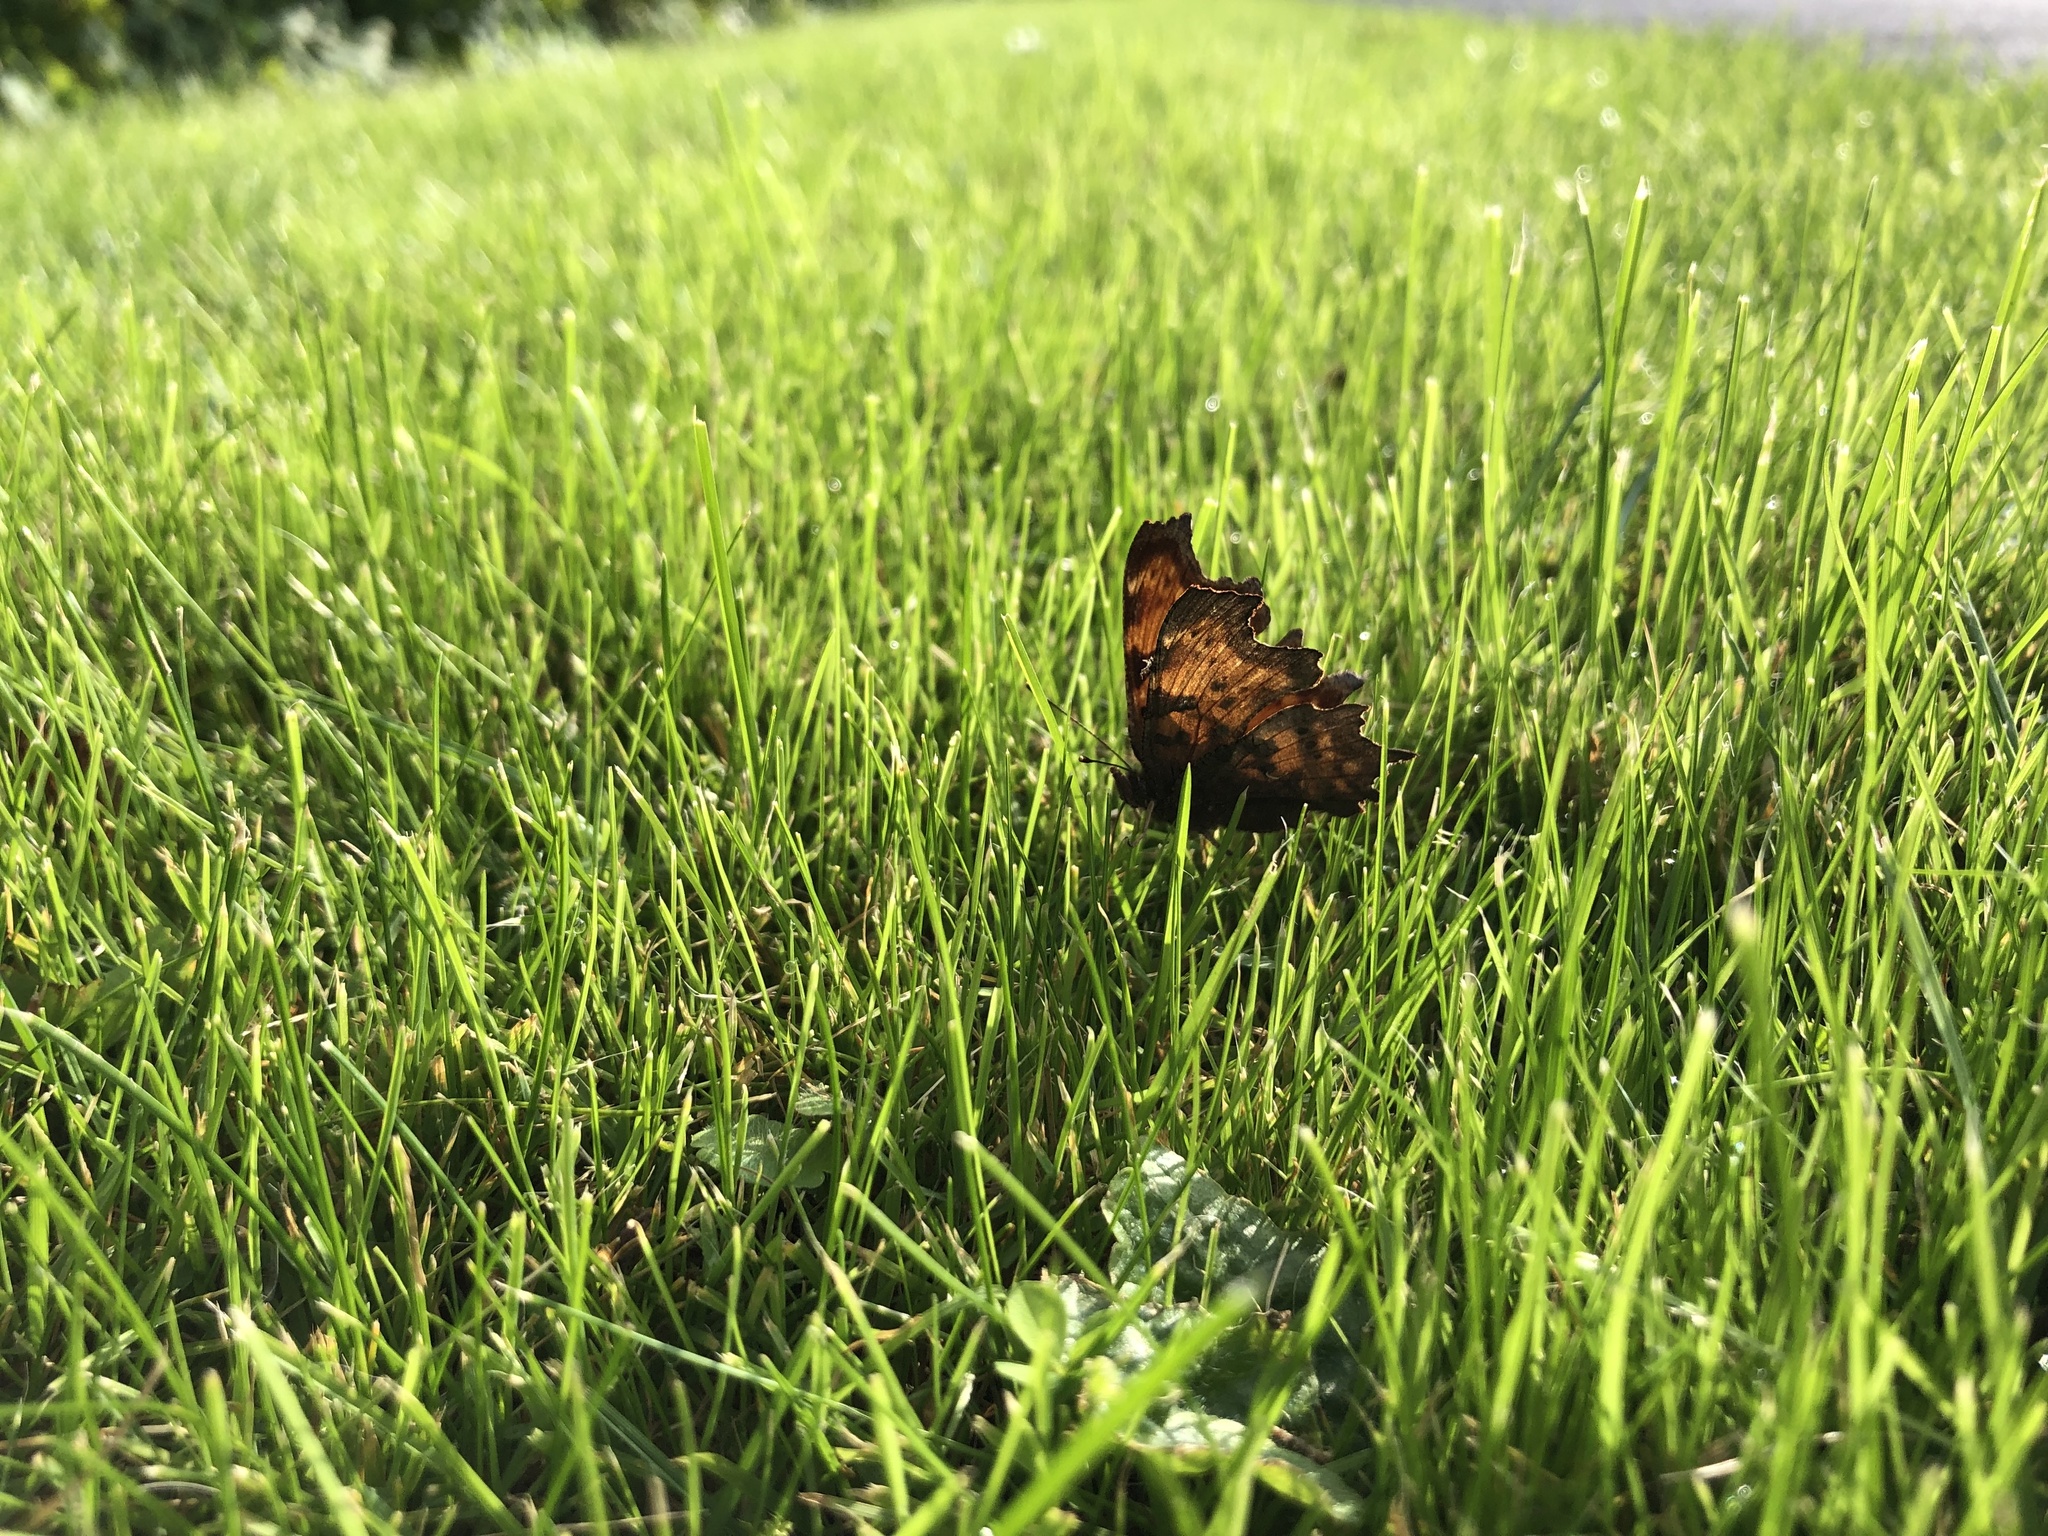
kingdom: Animalia
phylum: Arthropoda
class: Insecta
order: Lepidoptera
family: Nymphalidae
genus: Polygonia
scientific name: Polygonia c-album
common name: Comma
